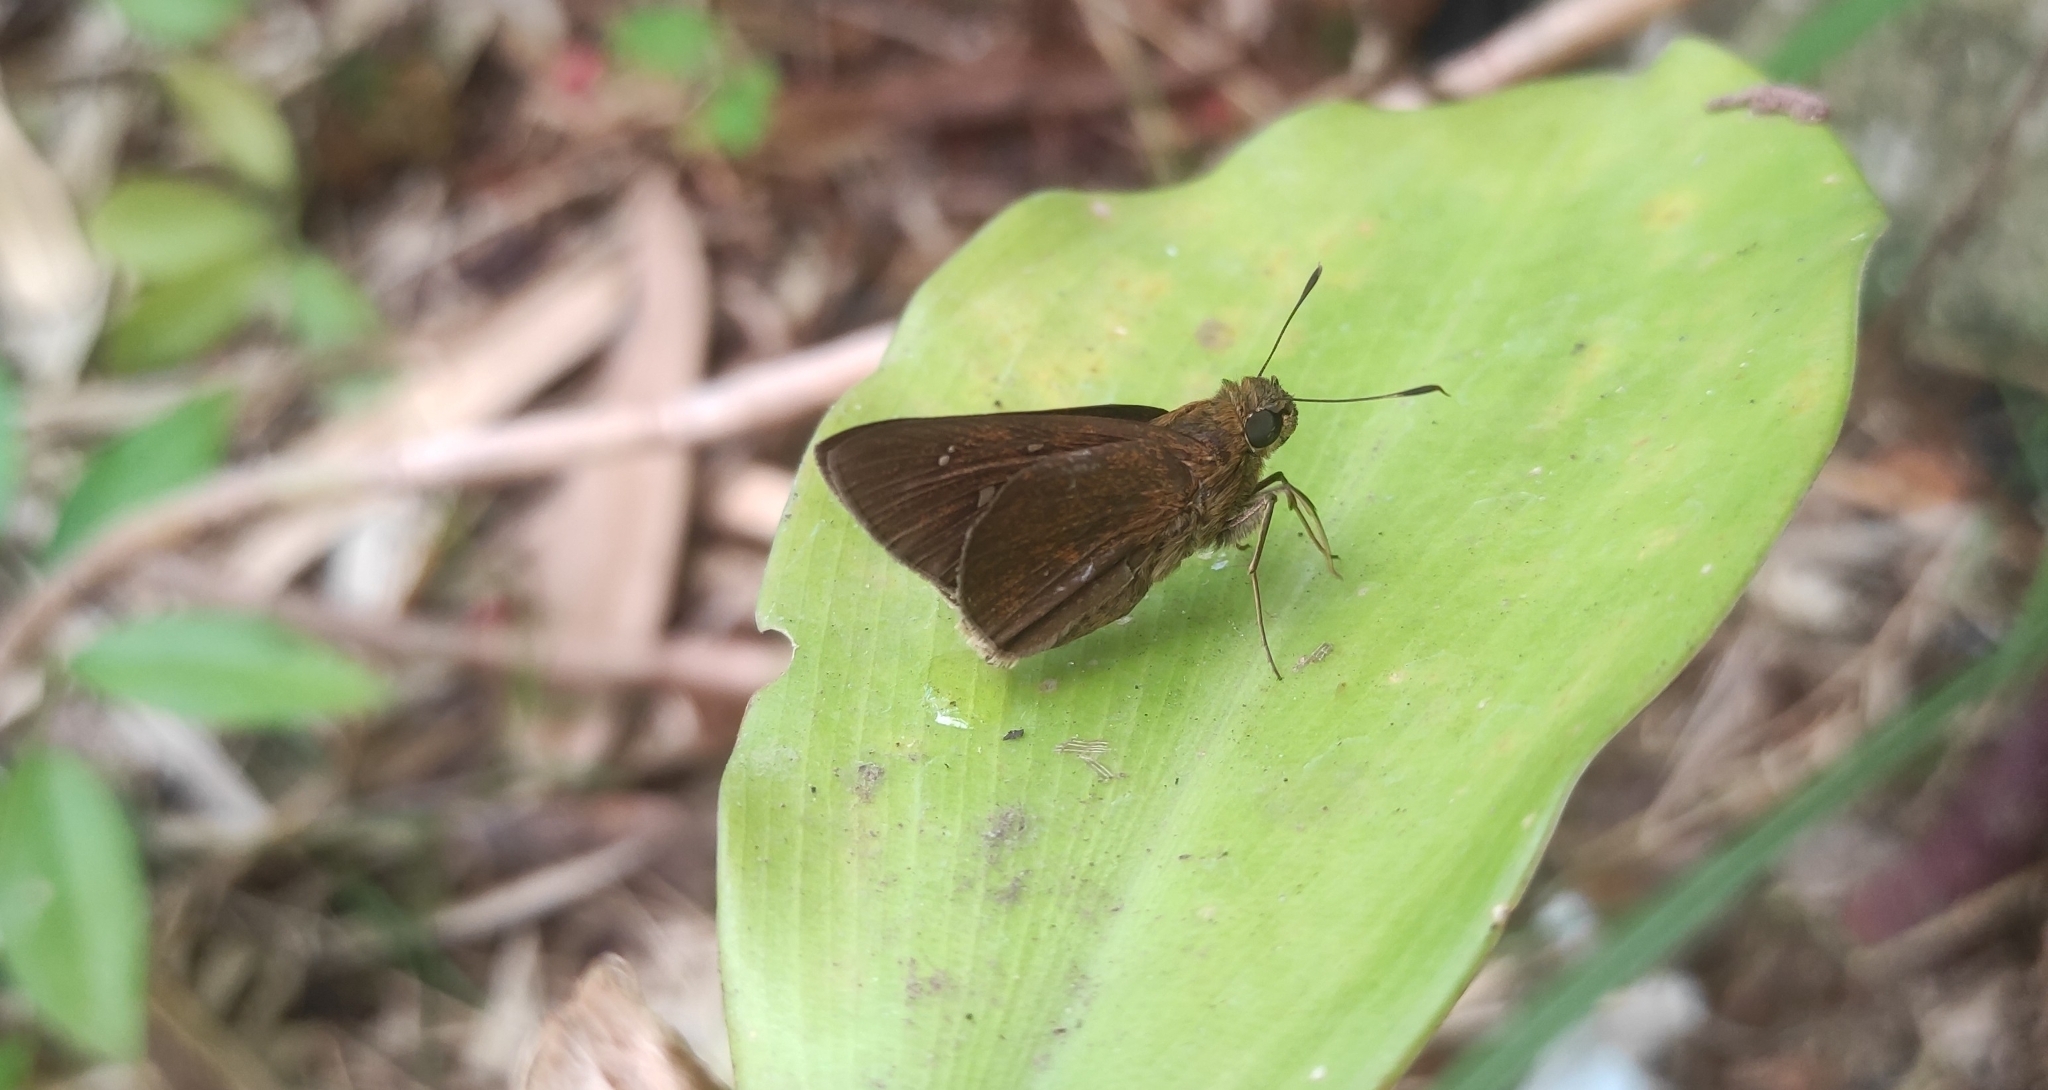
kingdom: Animalia
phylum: Arthropoda
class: Insecta
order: Lepidoptera
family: Hesperiidae
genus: Baoris
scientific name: Baoris farri
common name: Paintbrush swift
